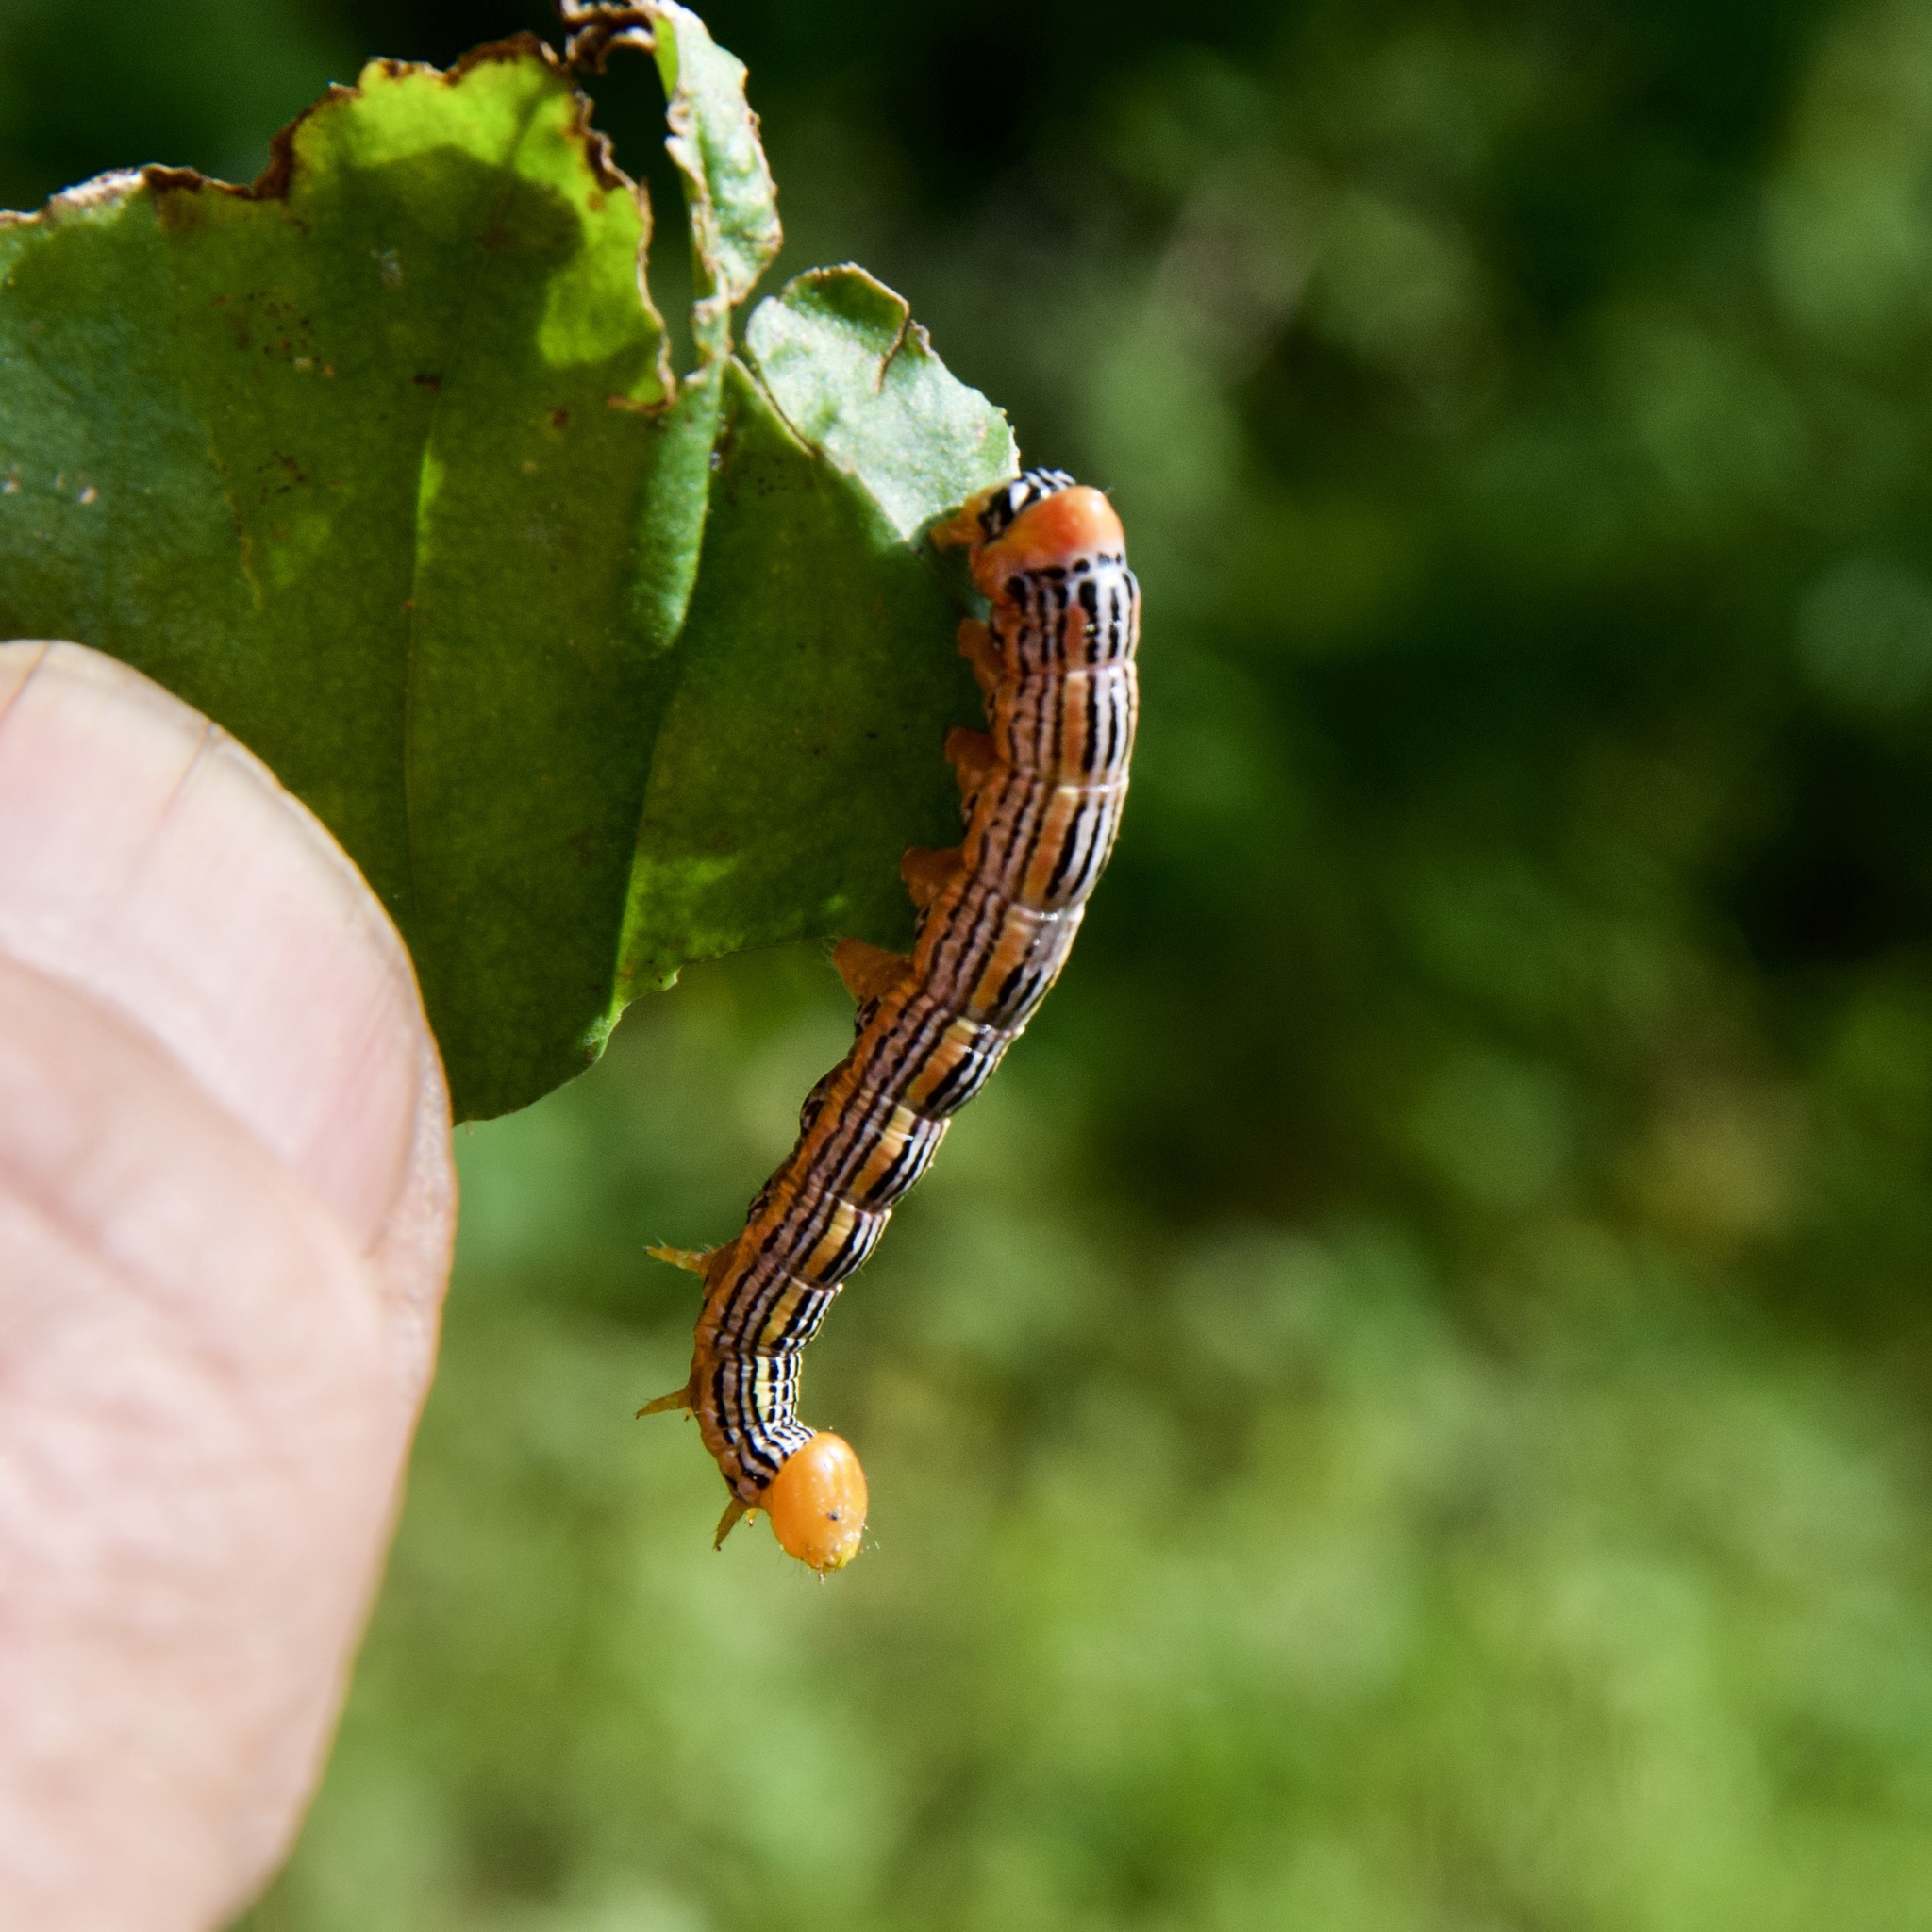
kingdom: Animalia
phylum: Arthropoda
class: Insecta
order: Lepidoptera
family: Notodontidae
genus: Symmerista
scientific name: Symmerista leucitys
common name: Orange-humped mapleworm
